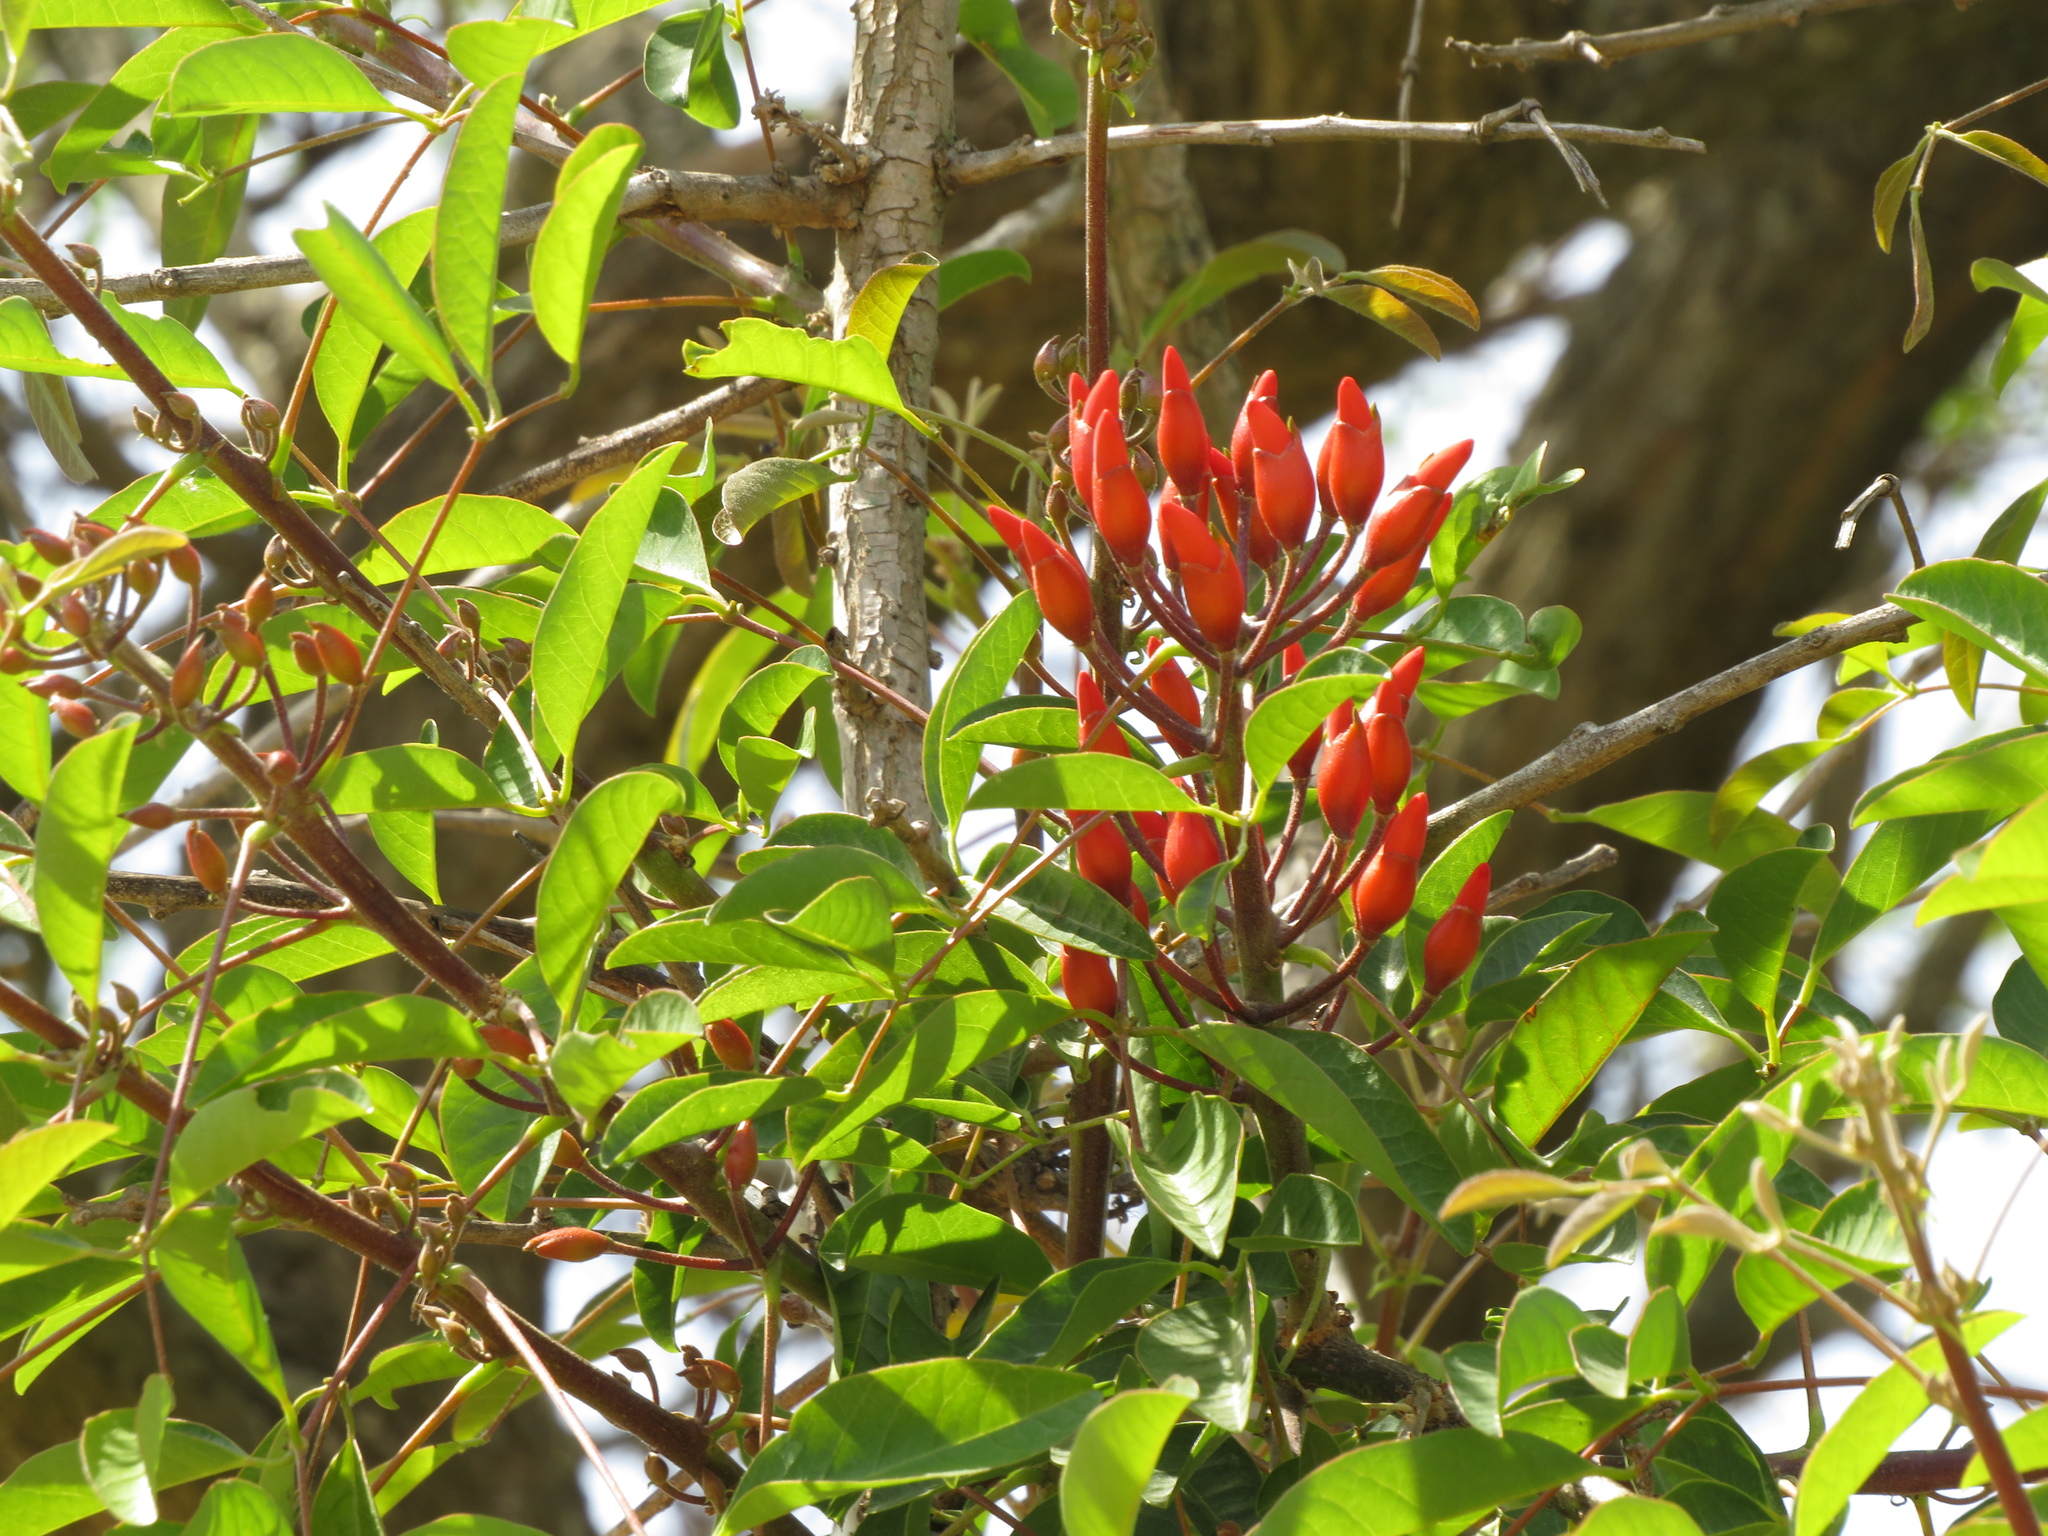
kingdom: Plantae
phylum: Tracheophyta
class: Magnoliopsida
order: Fabales
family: Fabaceae
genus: Erythrina
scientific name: Erythrina crista-galli
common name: Cockspur coral tree
